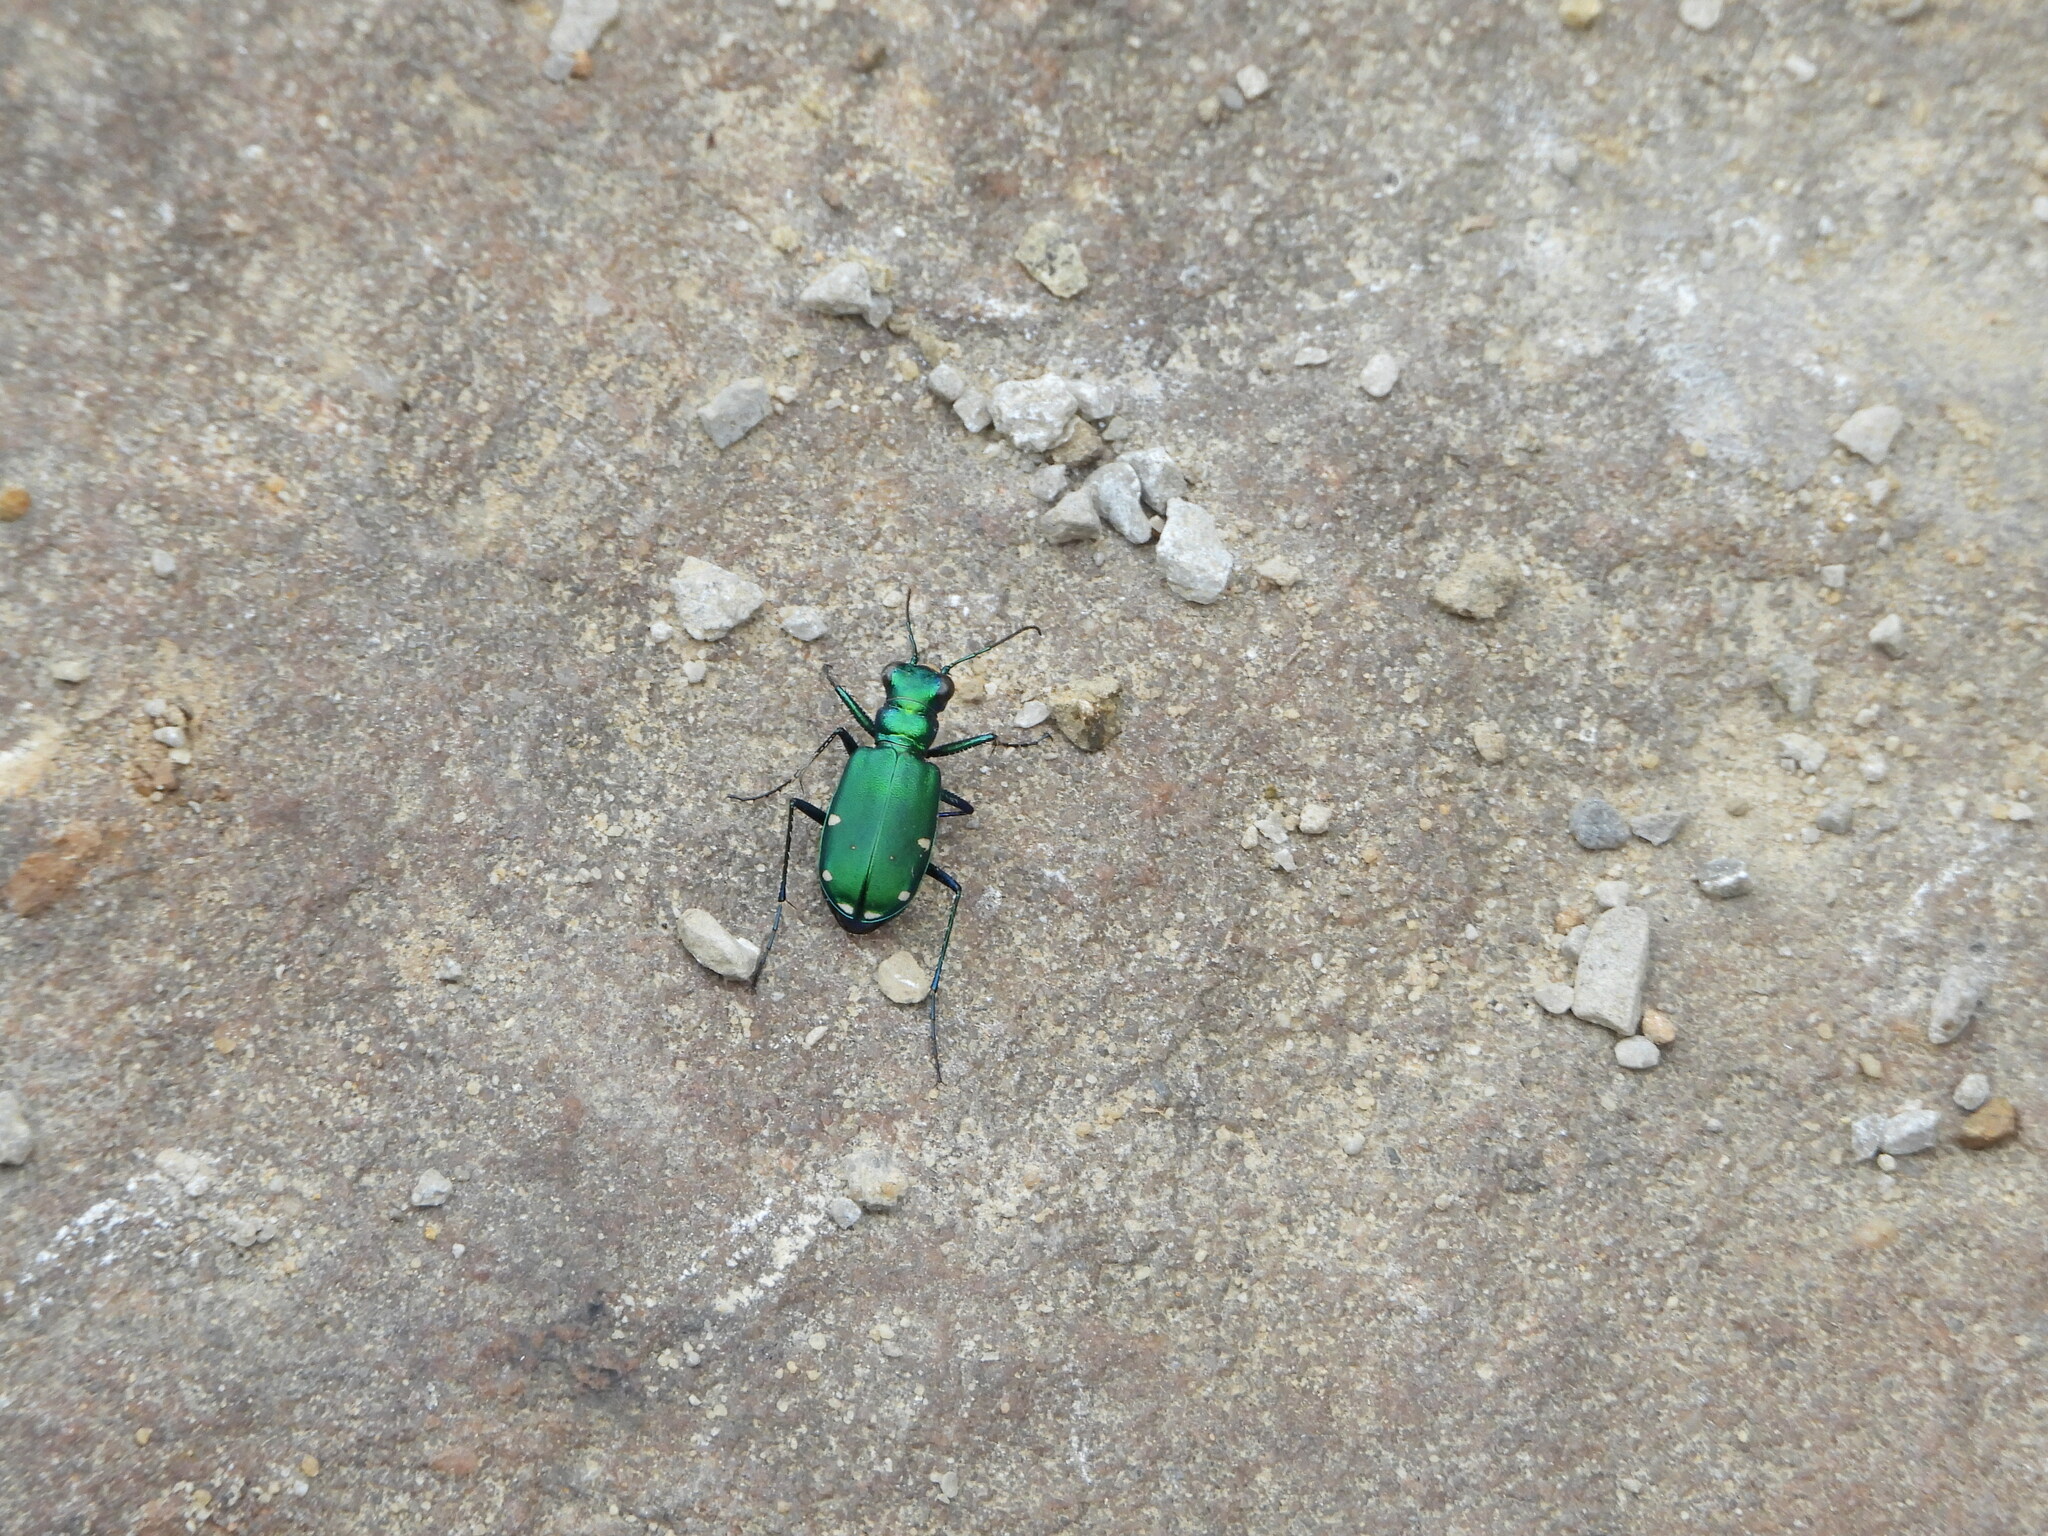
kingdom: Animalia
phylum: Arthropoda
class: Insecta
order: Coleoptera
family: Carabidae
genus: Cicindela
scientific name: Cicindela sexguttata
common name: Six-spotted tiger beetle
